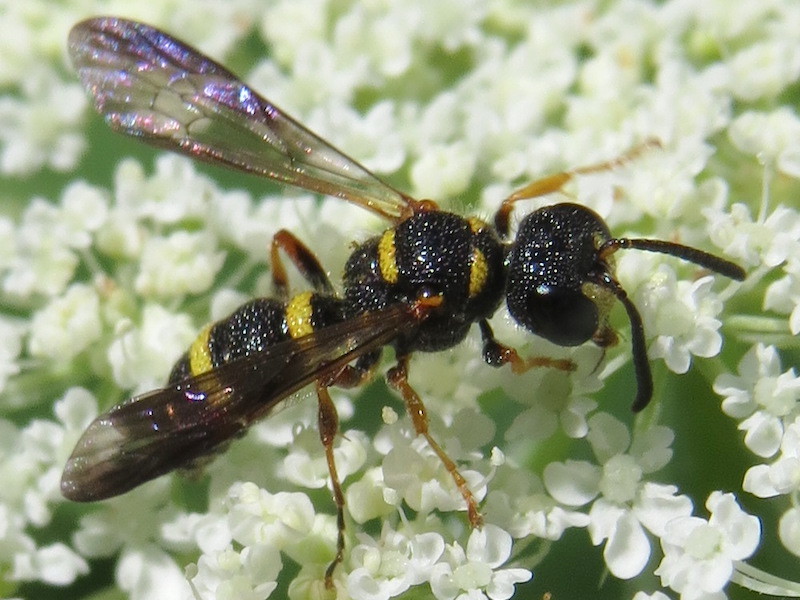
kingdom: Animalia
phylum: Arthropoda
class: Insecta
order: Hymenoptera
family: Crabronidae
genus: Cerceris
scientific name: Cerceris insolita
